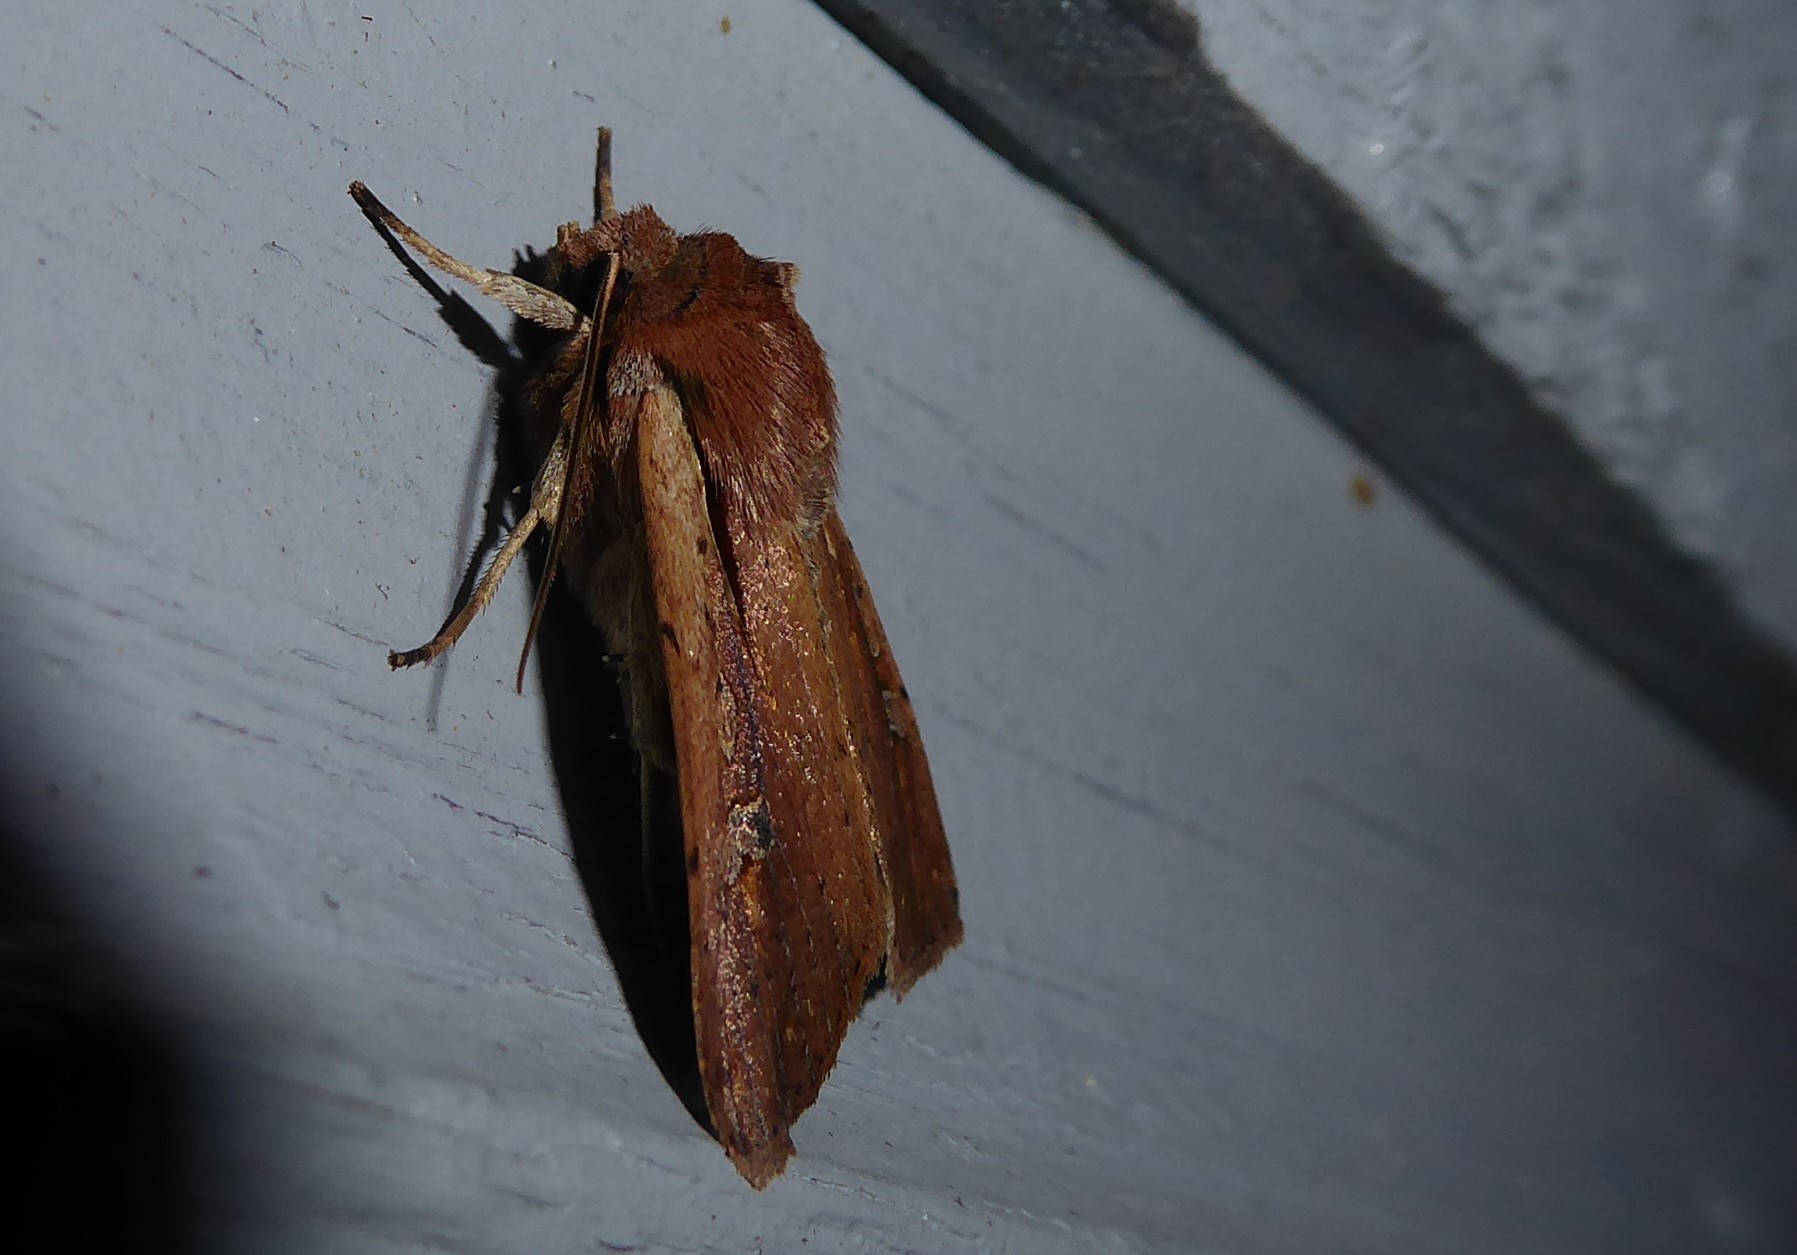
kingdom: Animalia
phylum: Arthropoda
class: Insecta
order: Lepidoptera
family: Noctuidae
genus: Ichneutica
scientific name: Ichneutica atristriga
